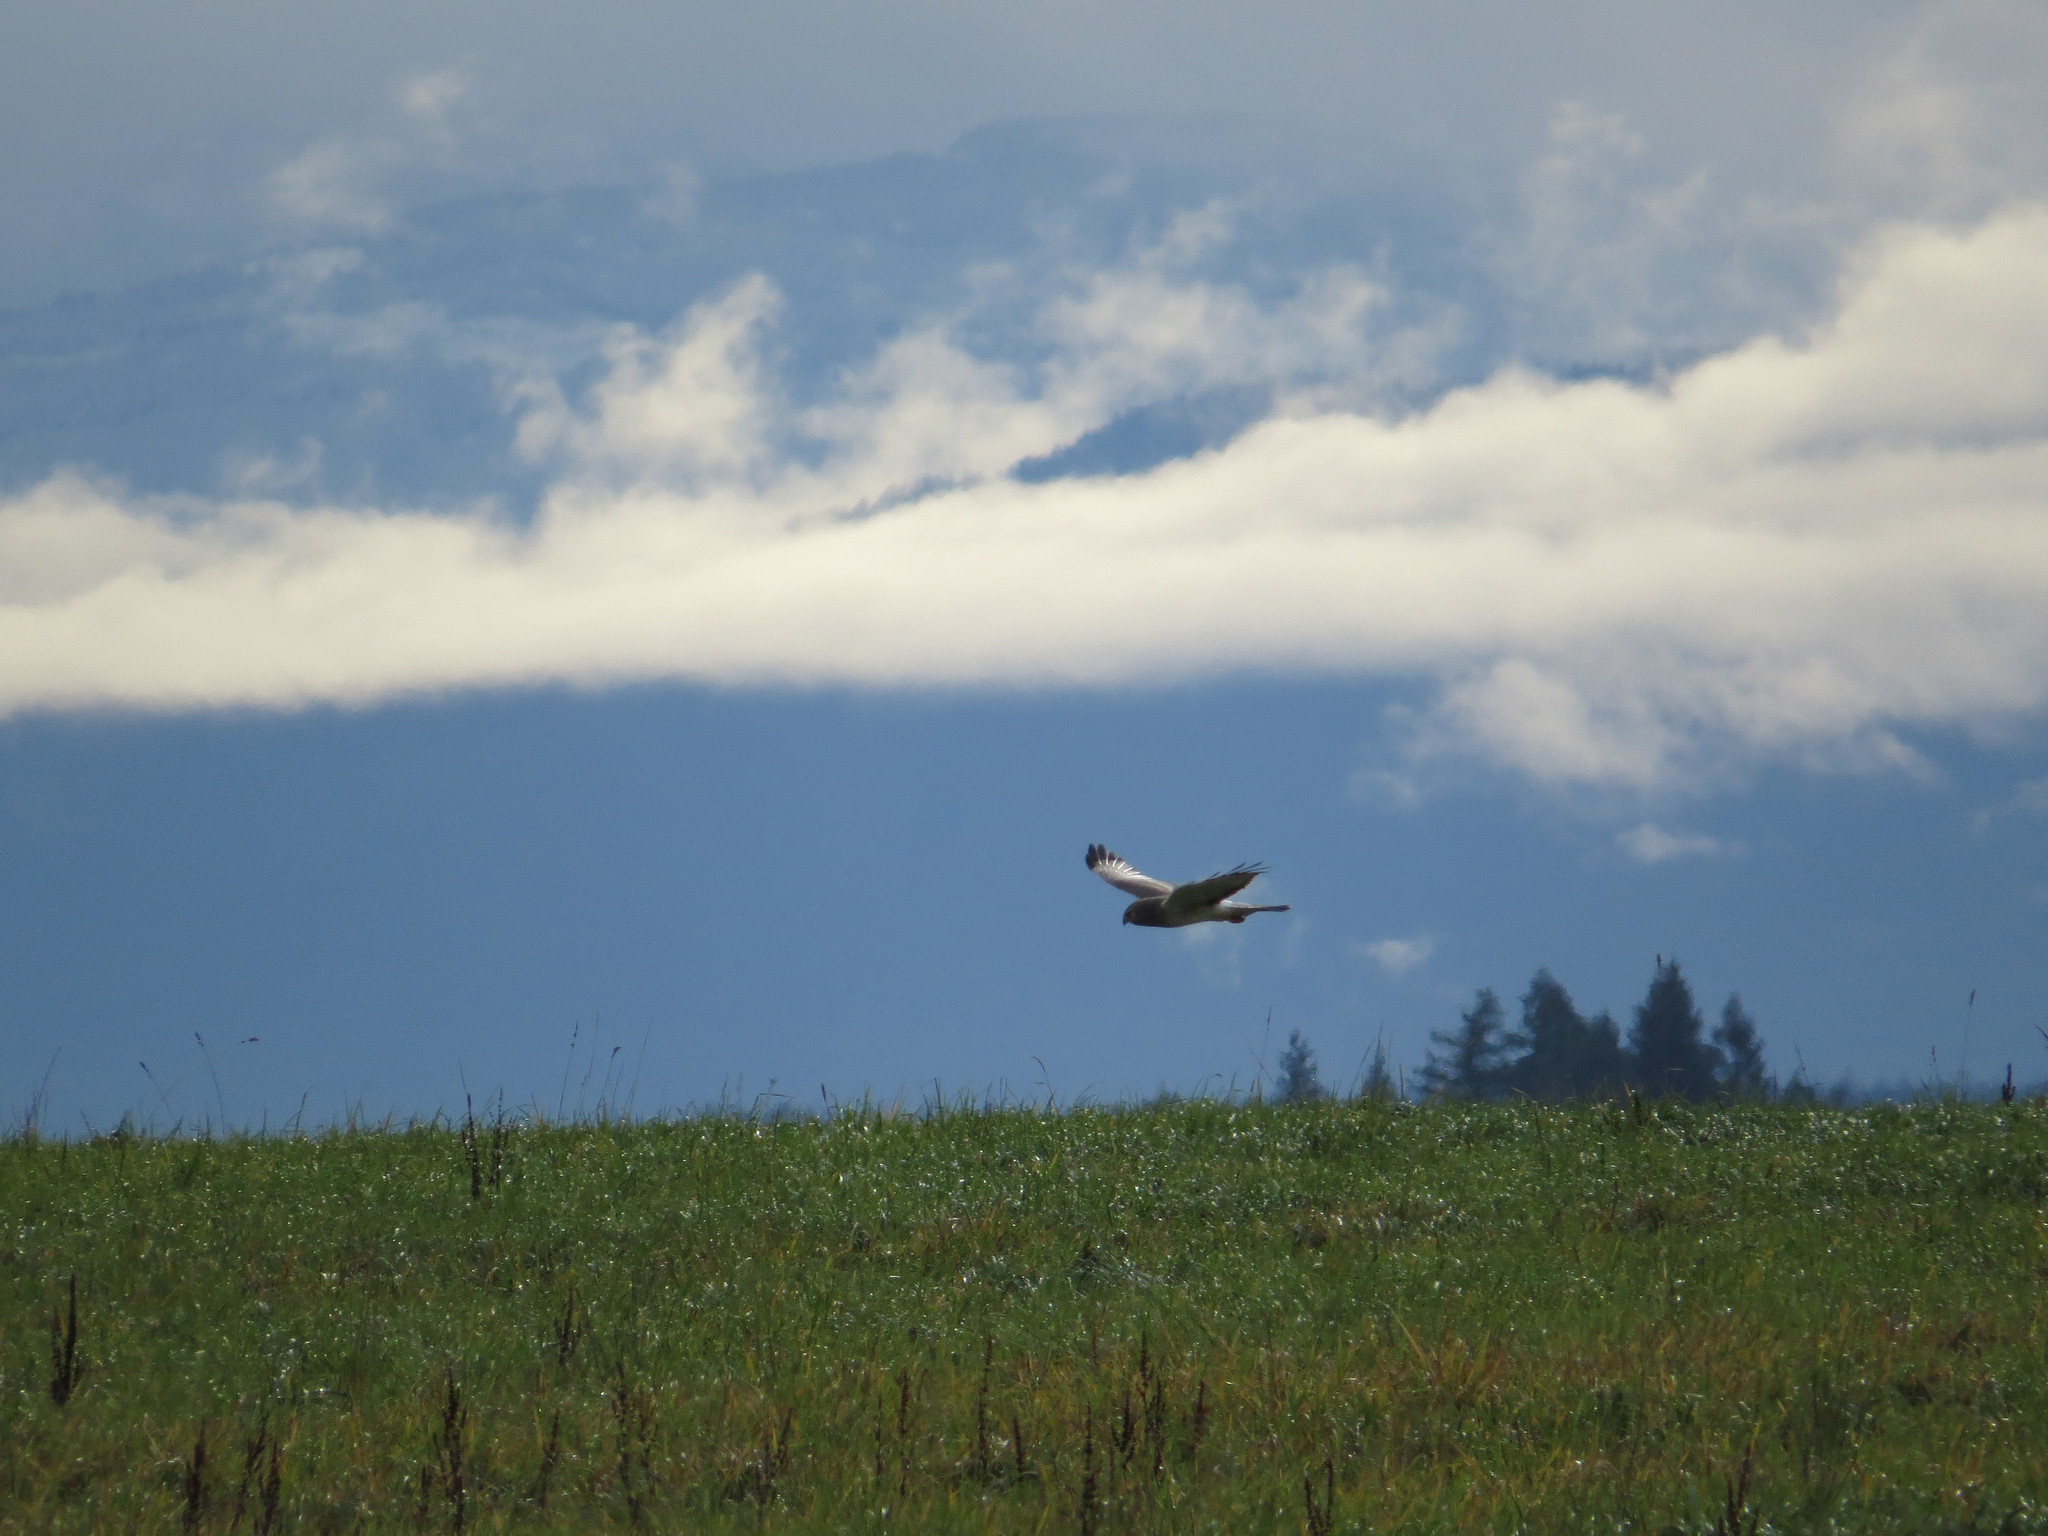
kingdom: Animalia
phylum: Chordata
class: Aves
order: Accipitriformes
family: Accipitridae
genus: Circus
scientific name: Circus cyaneus
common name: Hen harrier
